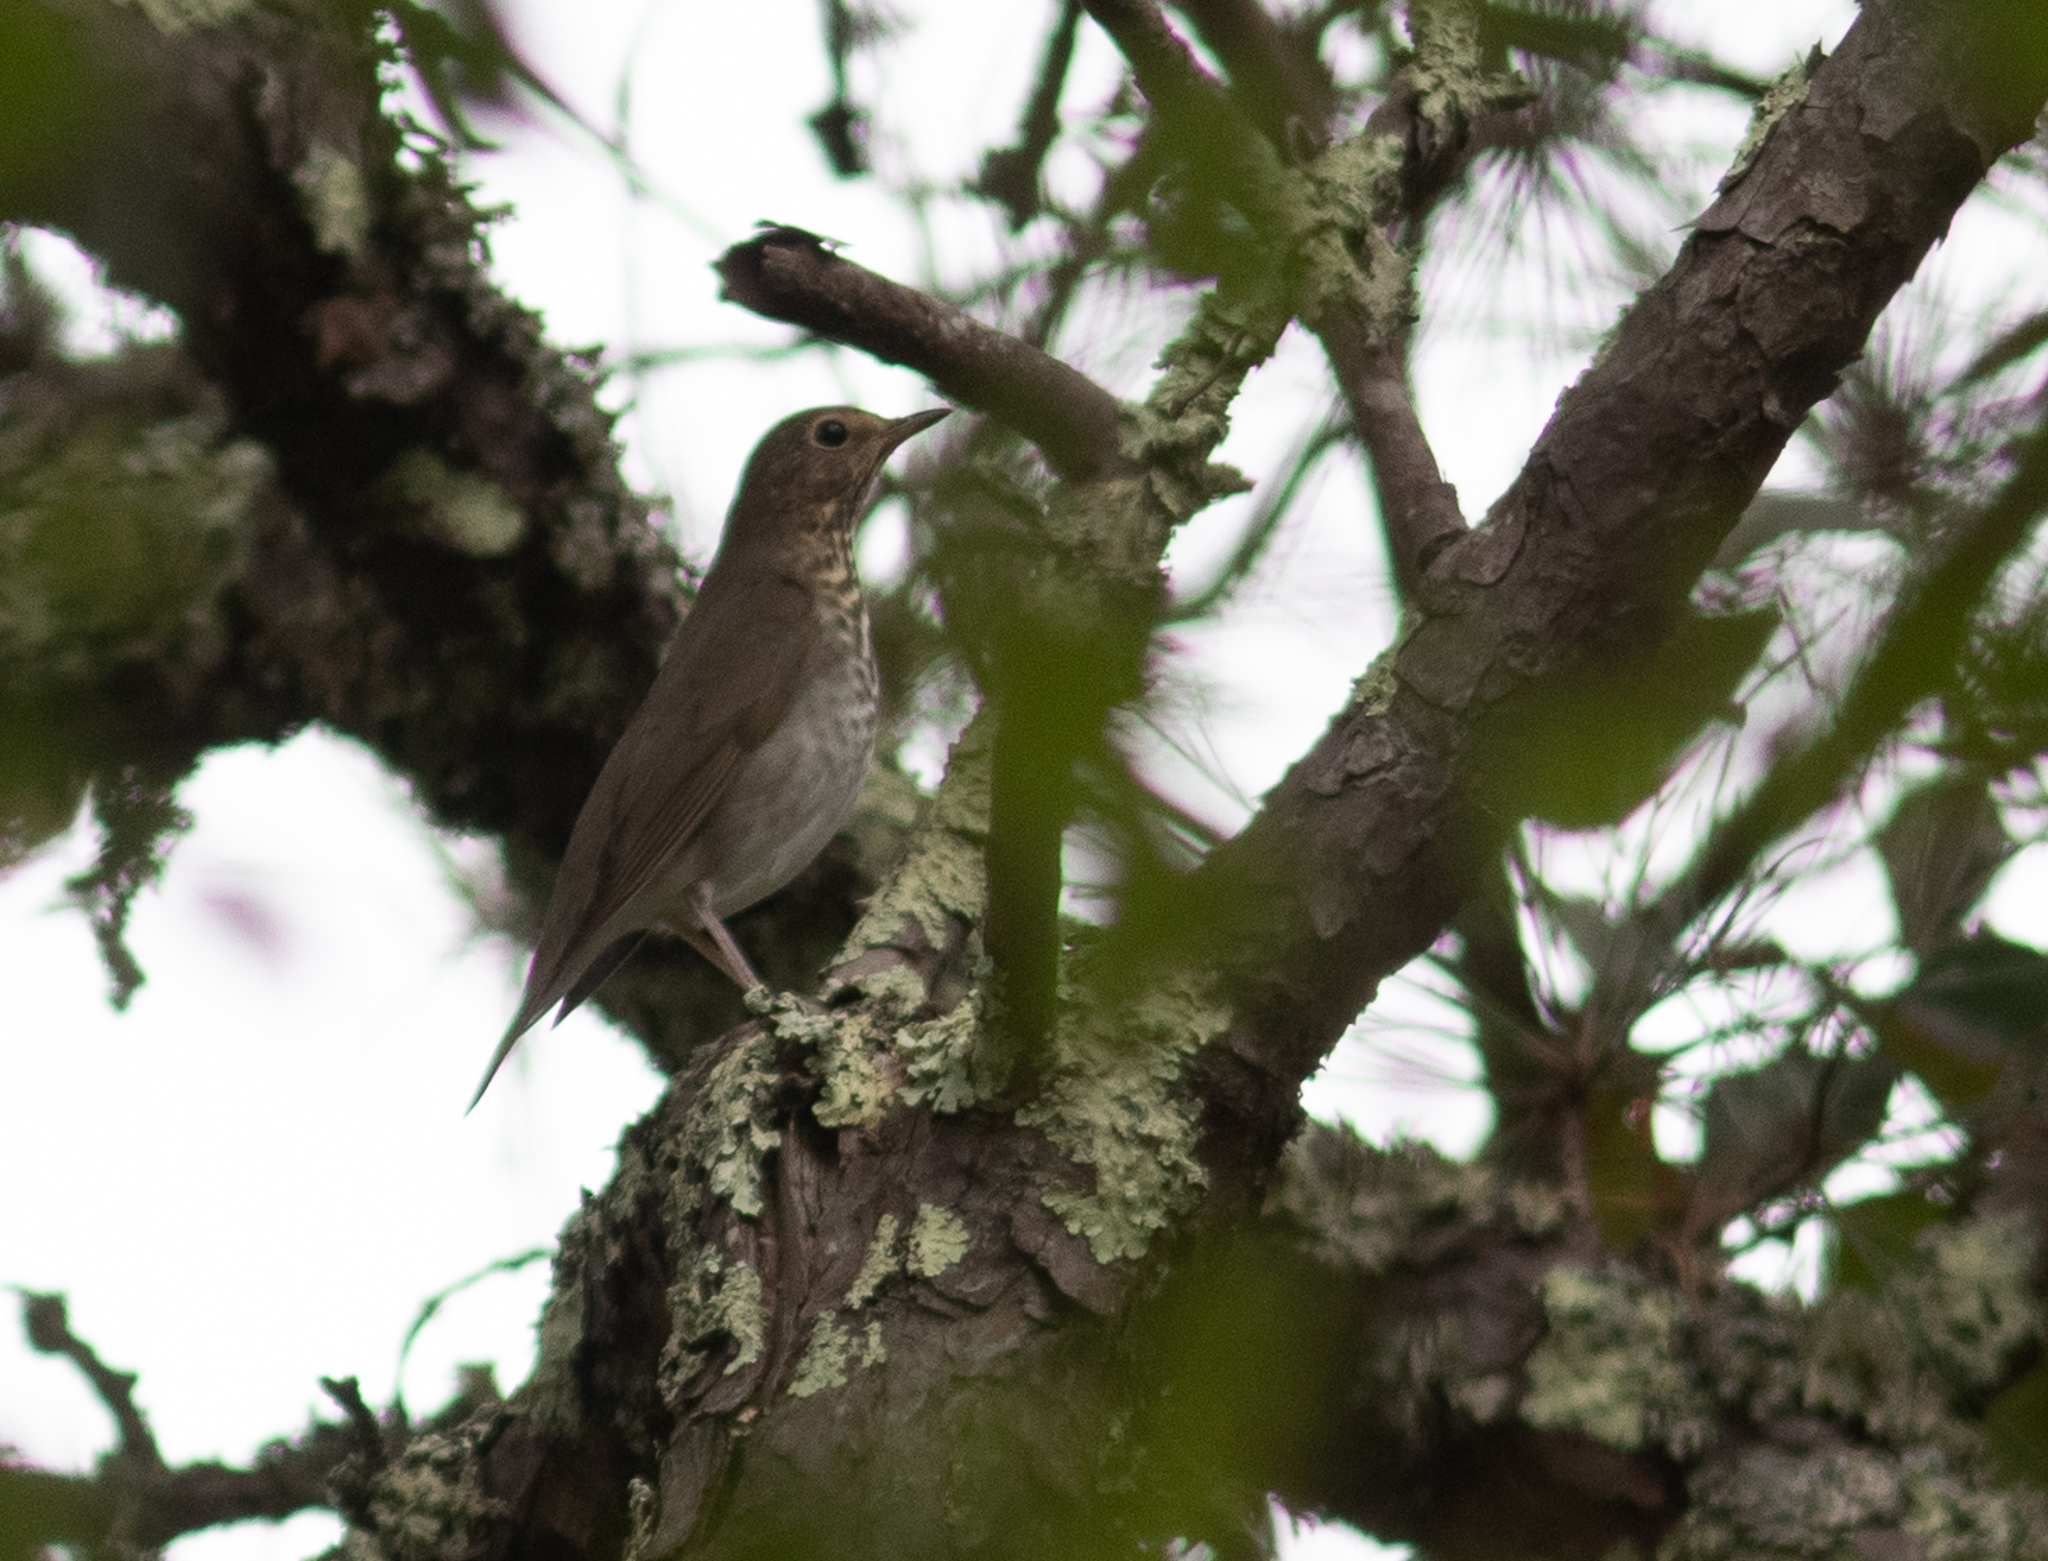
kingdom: Animalia
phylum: Chordata
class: Aves
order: Passeriformes
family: Turdidae
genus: Catharus
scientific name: Catharus ustulatus
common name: Swainson's thrush
